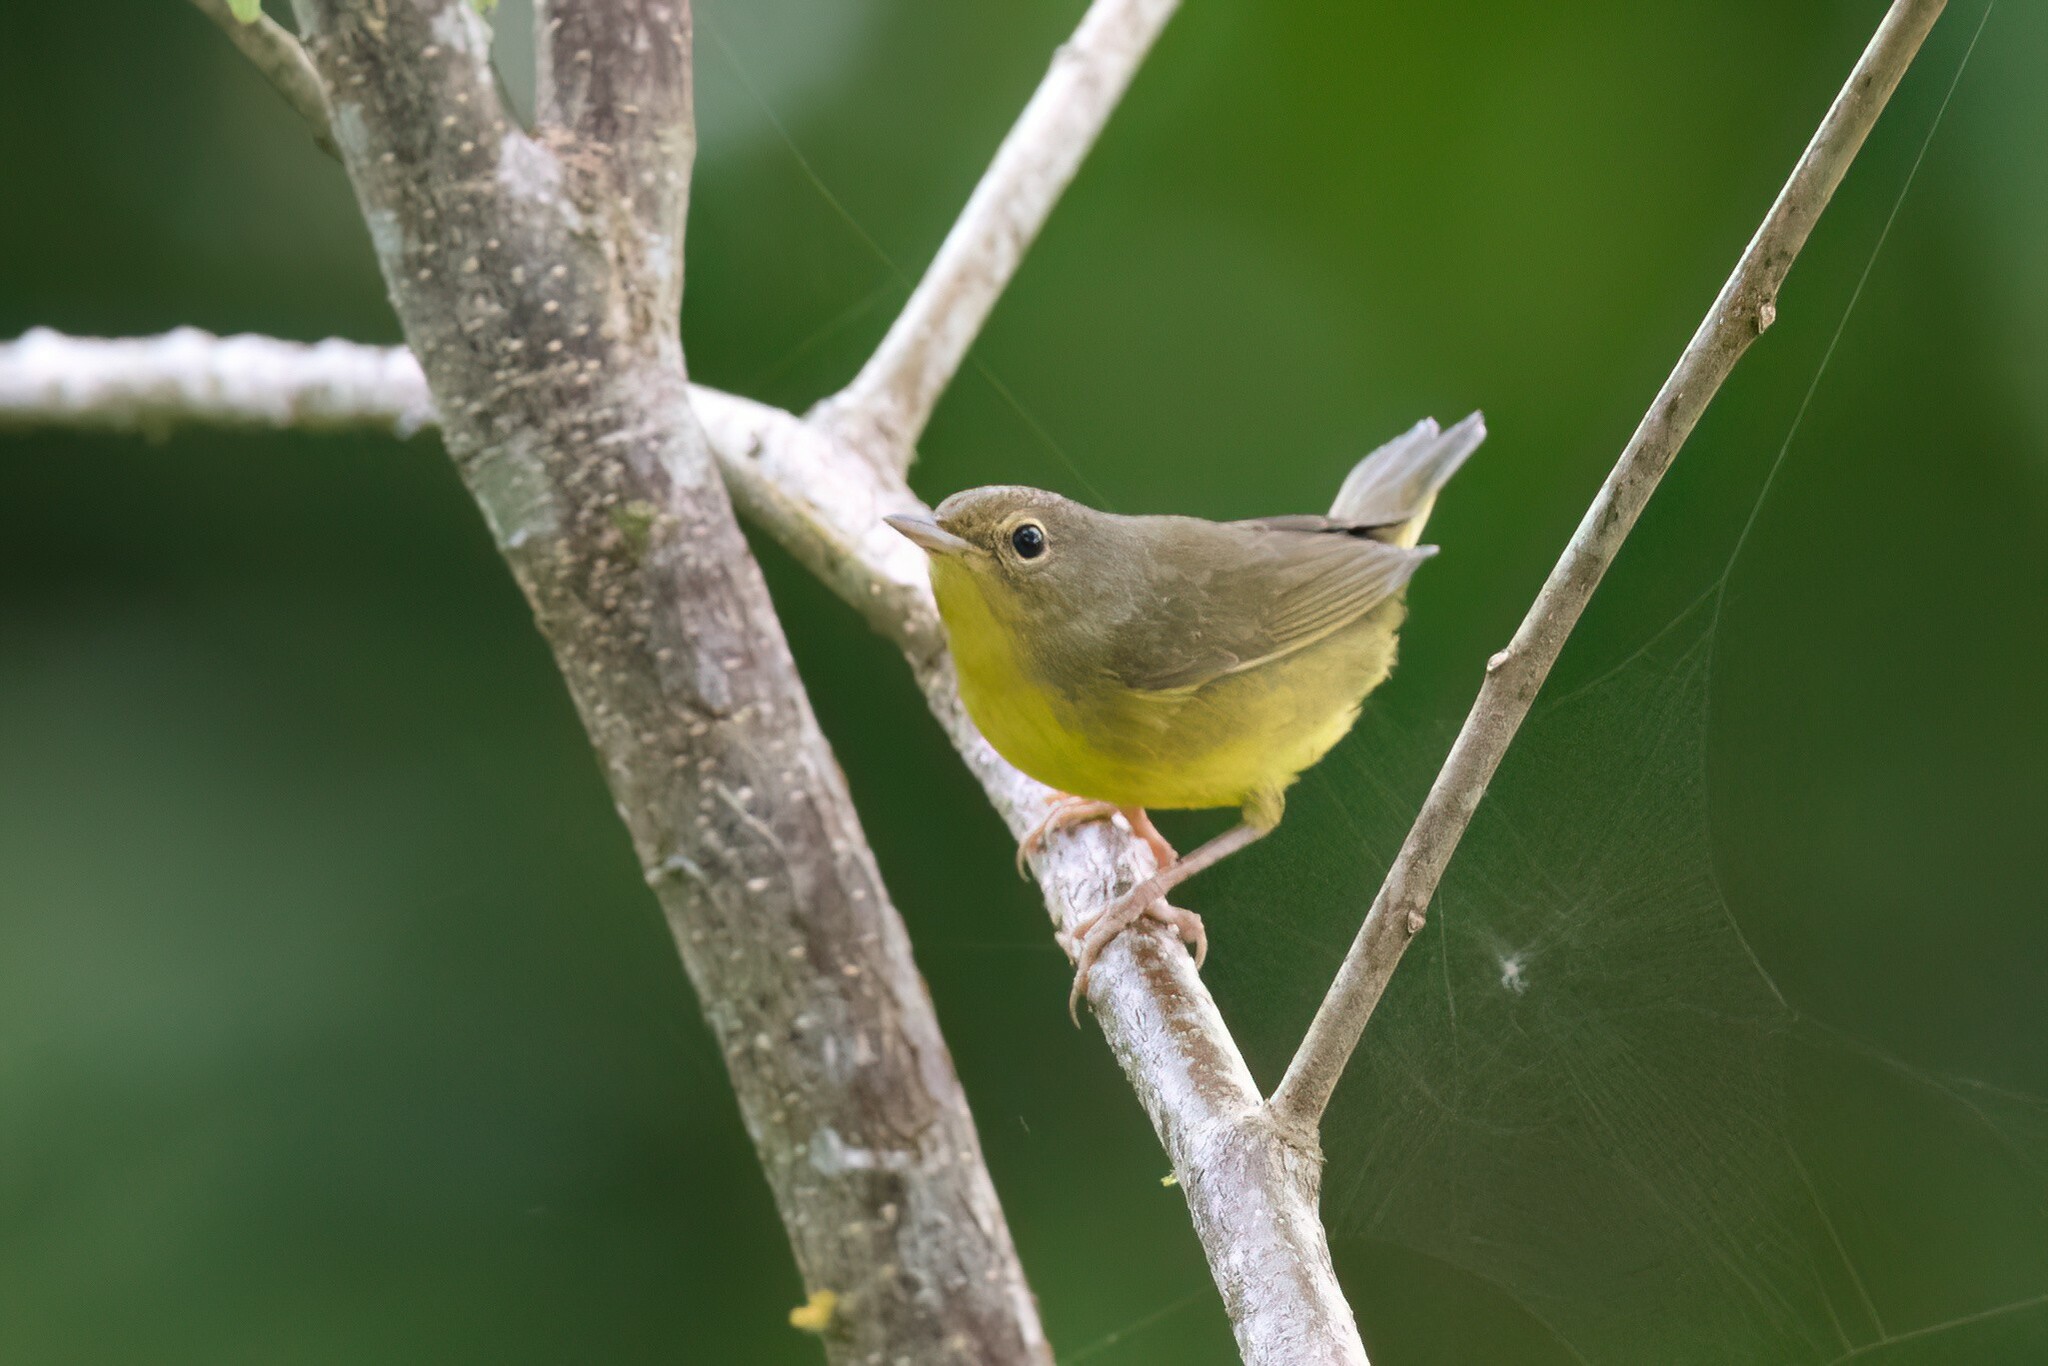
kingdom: Animalia
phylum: Chordata
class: Aves
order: Passeriformes
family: Parulidae
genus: Geothlypis
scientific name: Geothlypis philadelphia
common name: Mourning warbler
